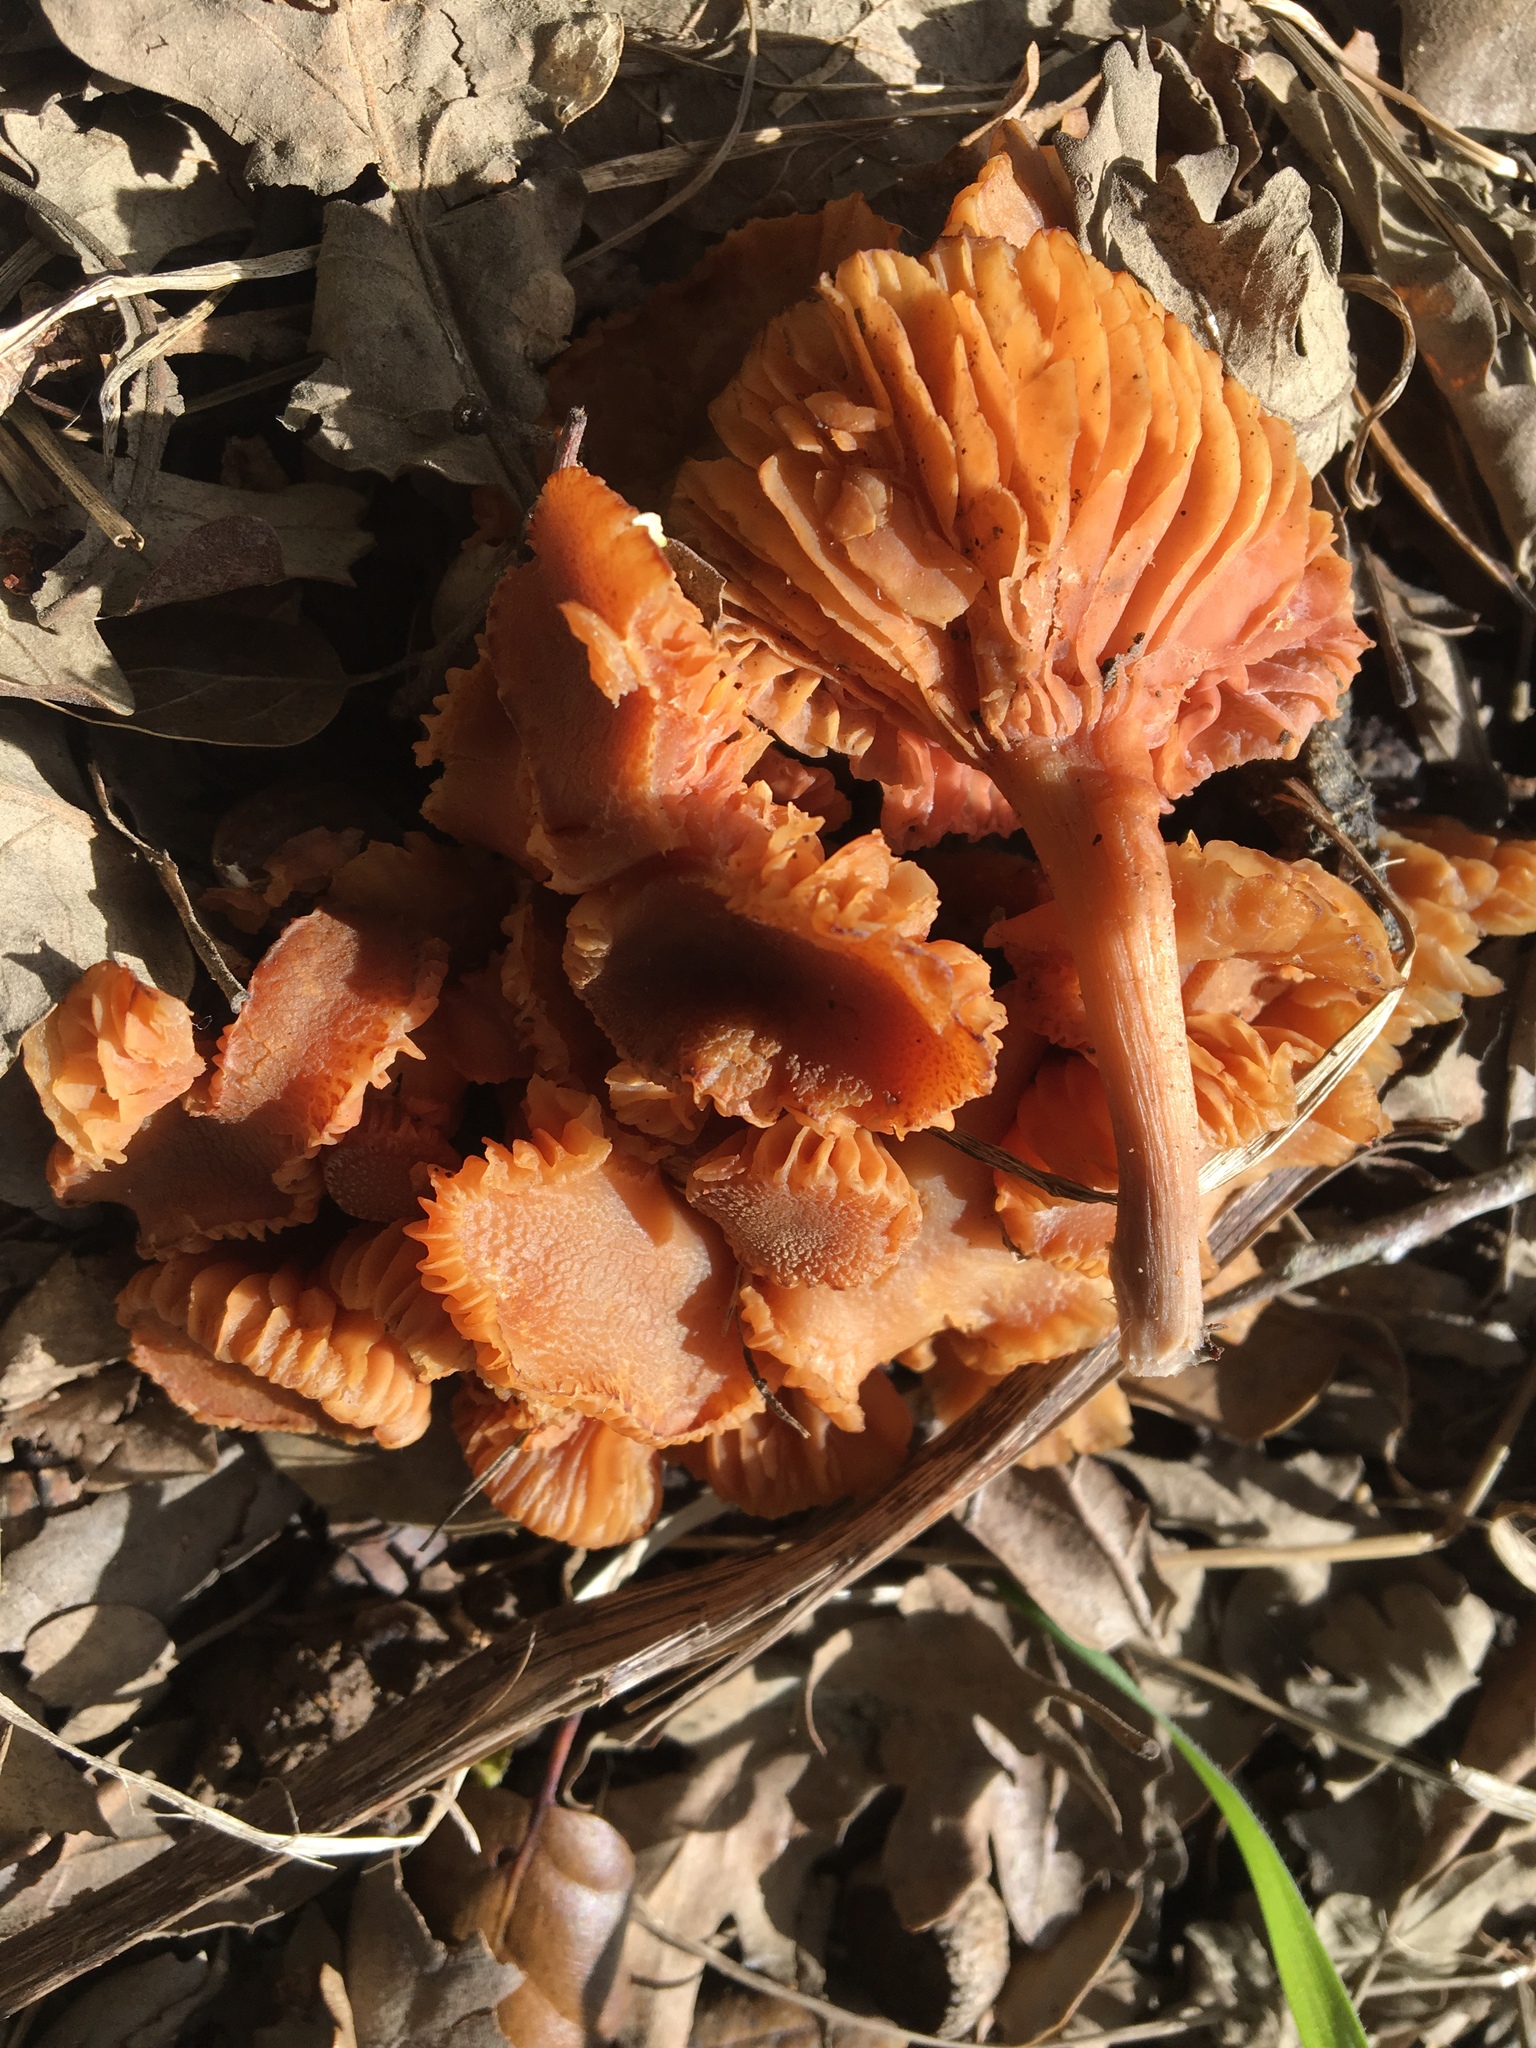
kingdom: Fungi
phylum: Basidiomycota
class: Agaricomycetes
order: Agaricales
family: Hydnangiaceae
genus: Laccaria
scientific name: Laccaria laccata
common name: Deceiver
